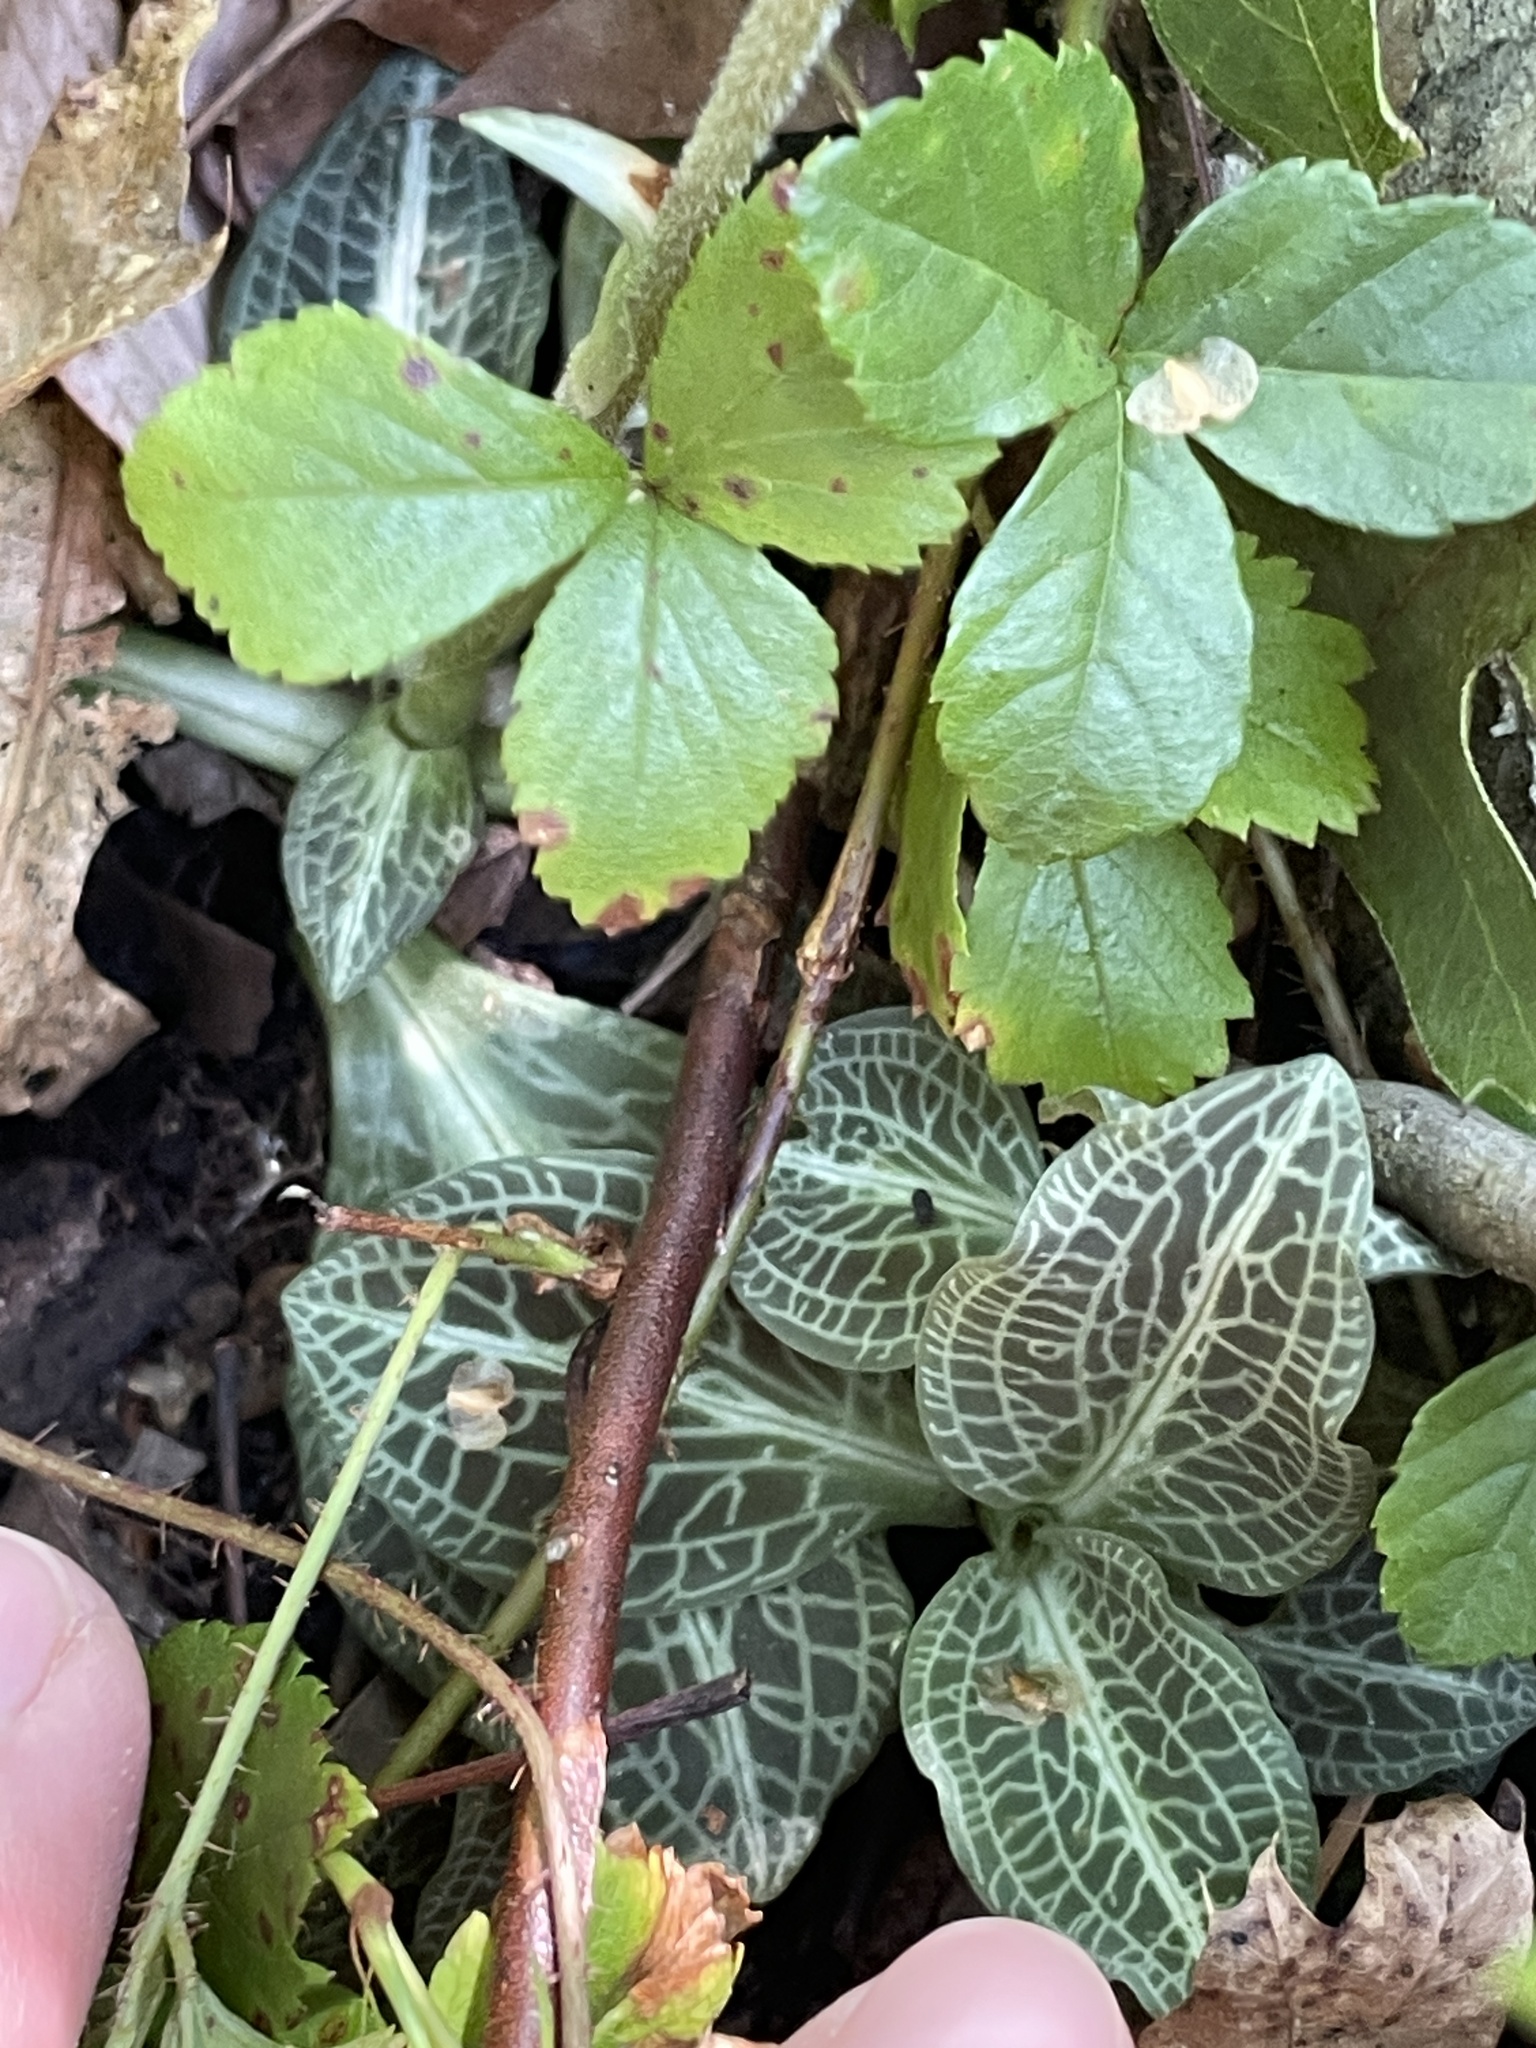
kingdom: Plantae
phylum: Tracheophyta
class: Liliopsida
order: Asparagales
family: Orchidaceae
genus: Goodyera
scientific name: Goodyera pubescens
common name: Downy rattlesnake-plantain
